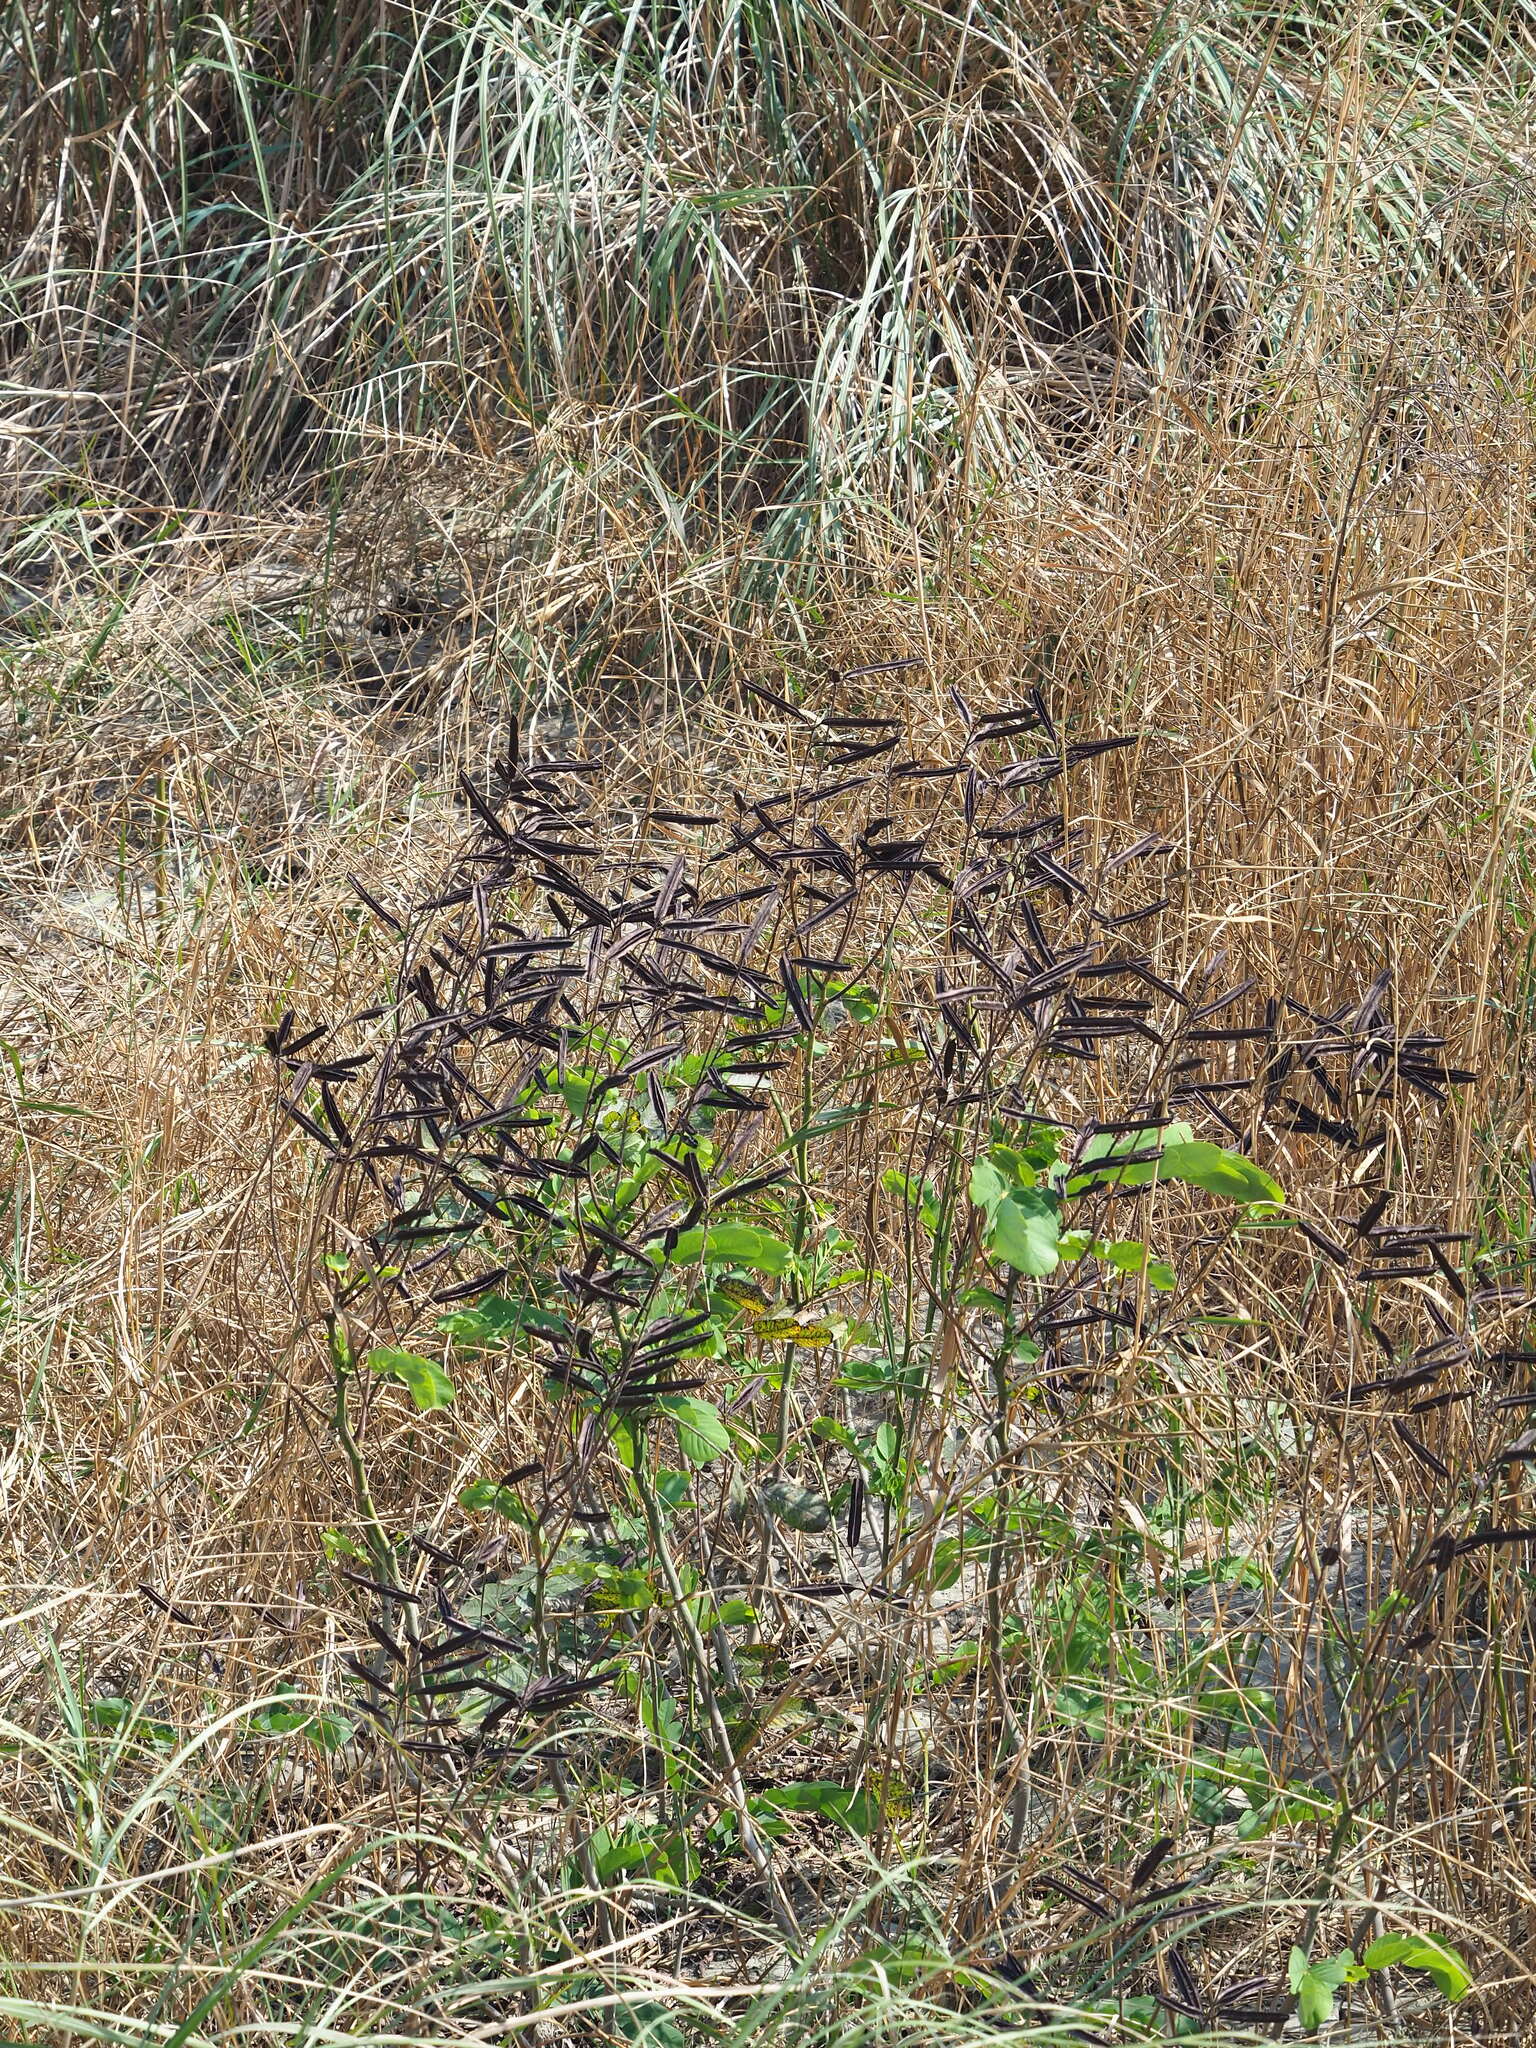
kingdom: Plantae
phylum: Tracheophyta
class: Magnoliopsida
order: Fabales
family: Fabaceae
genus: Senna
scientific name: Senna alata
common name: Emperor's candlesticks
